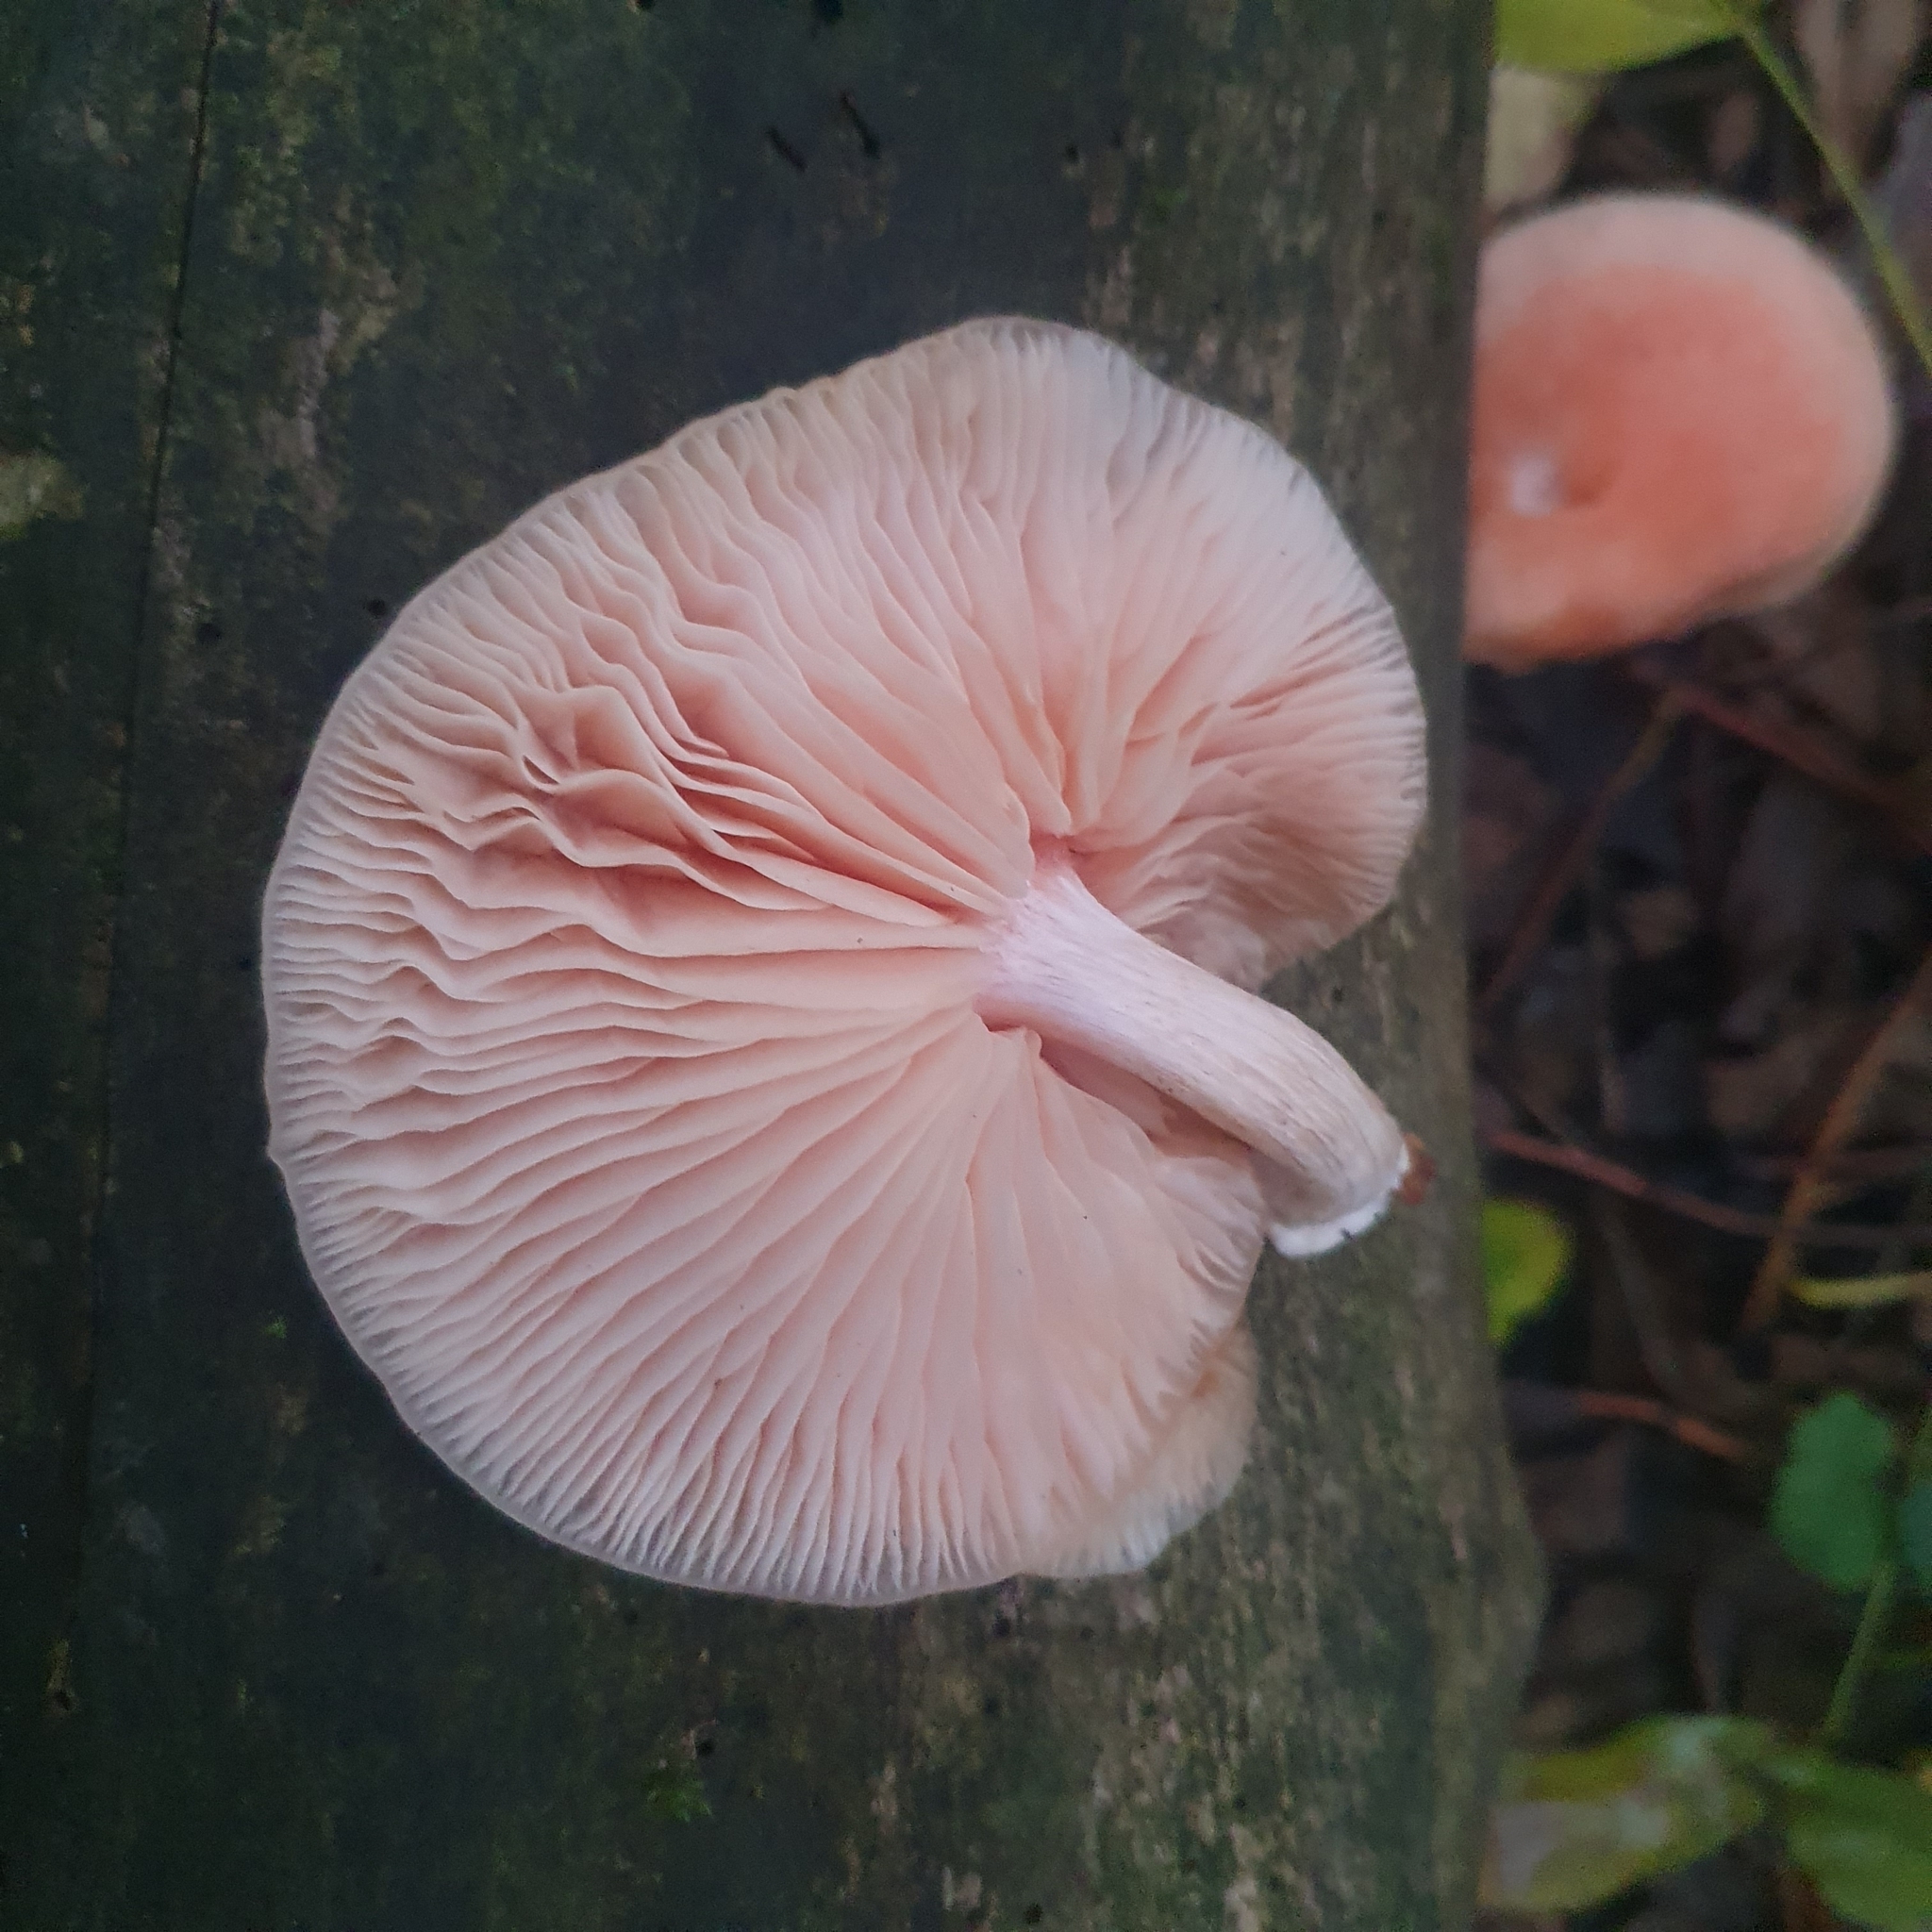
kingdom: Fungi
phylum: Basidiomycota
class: Agaricomycetes
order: Agaricales
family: Physalacriaceae
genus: Rhodotus
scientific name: Rhodotus palmatus
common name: Wrinkled peach
